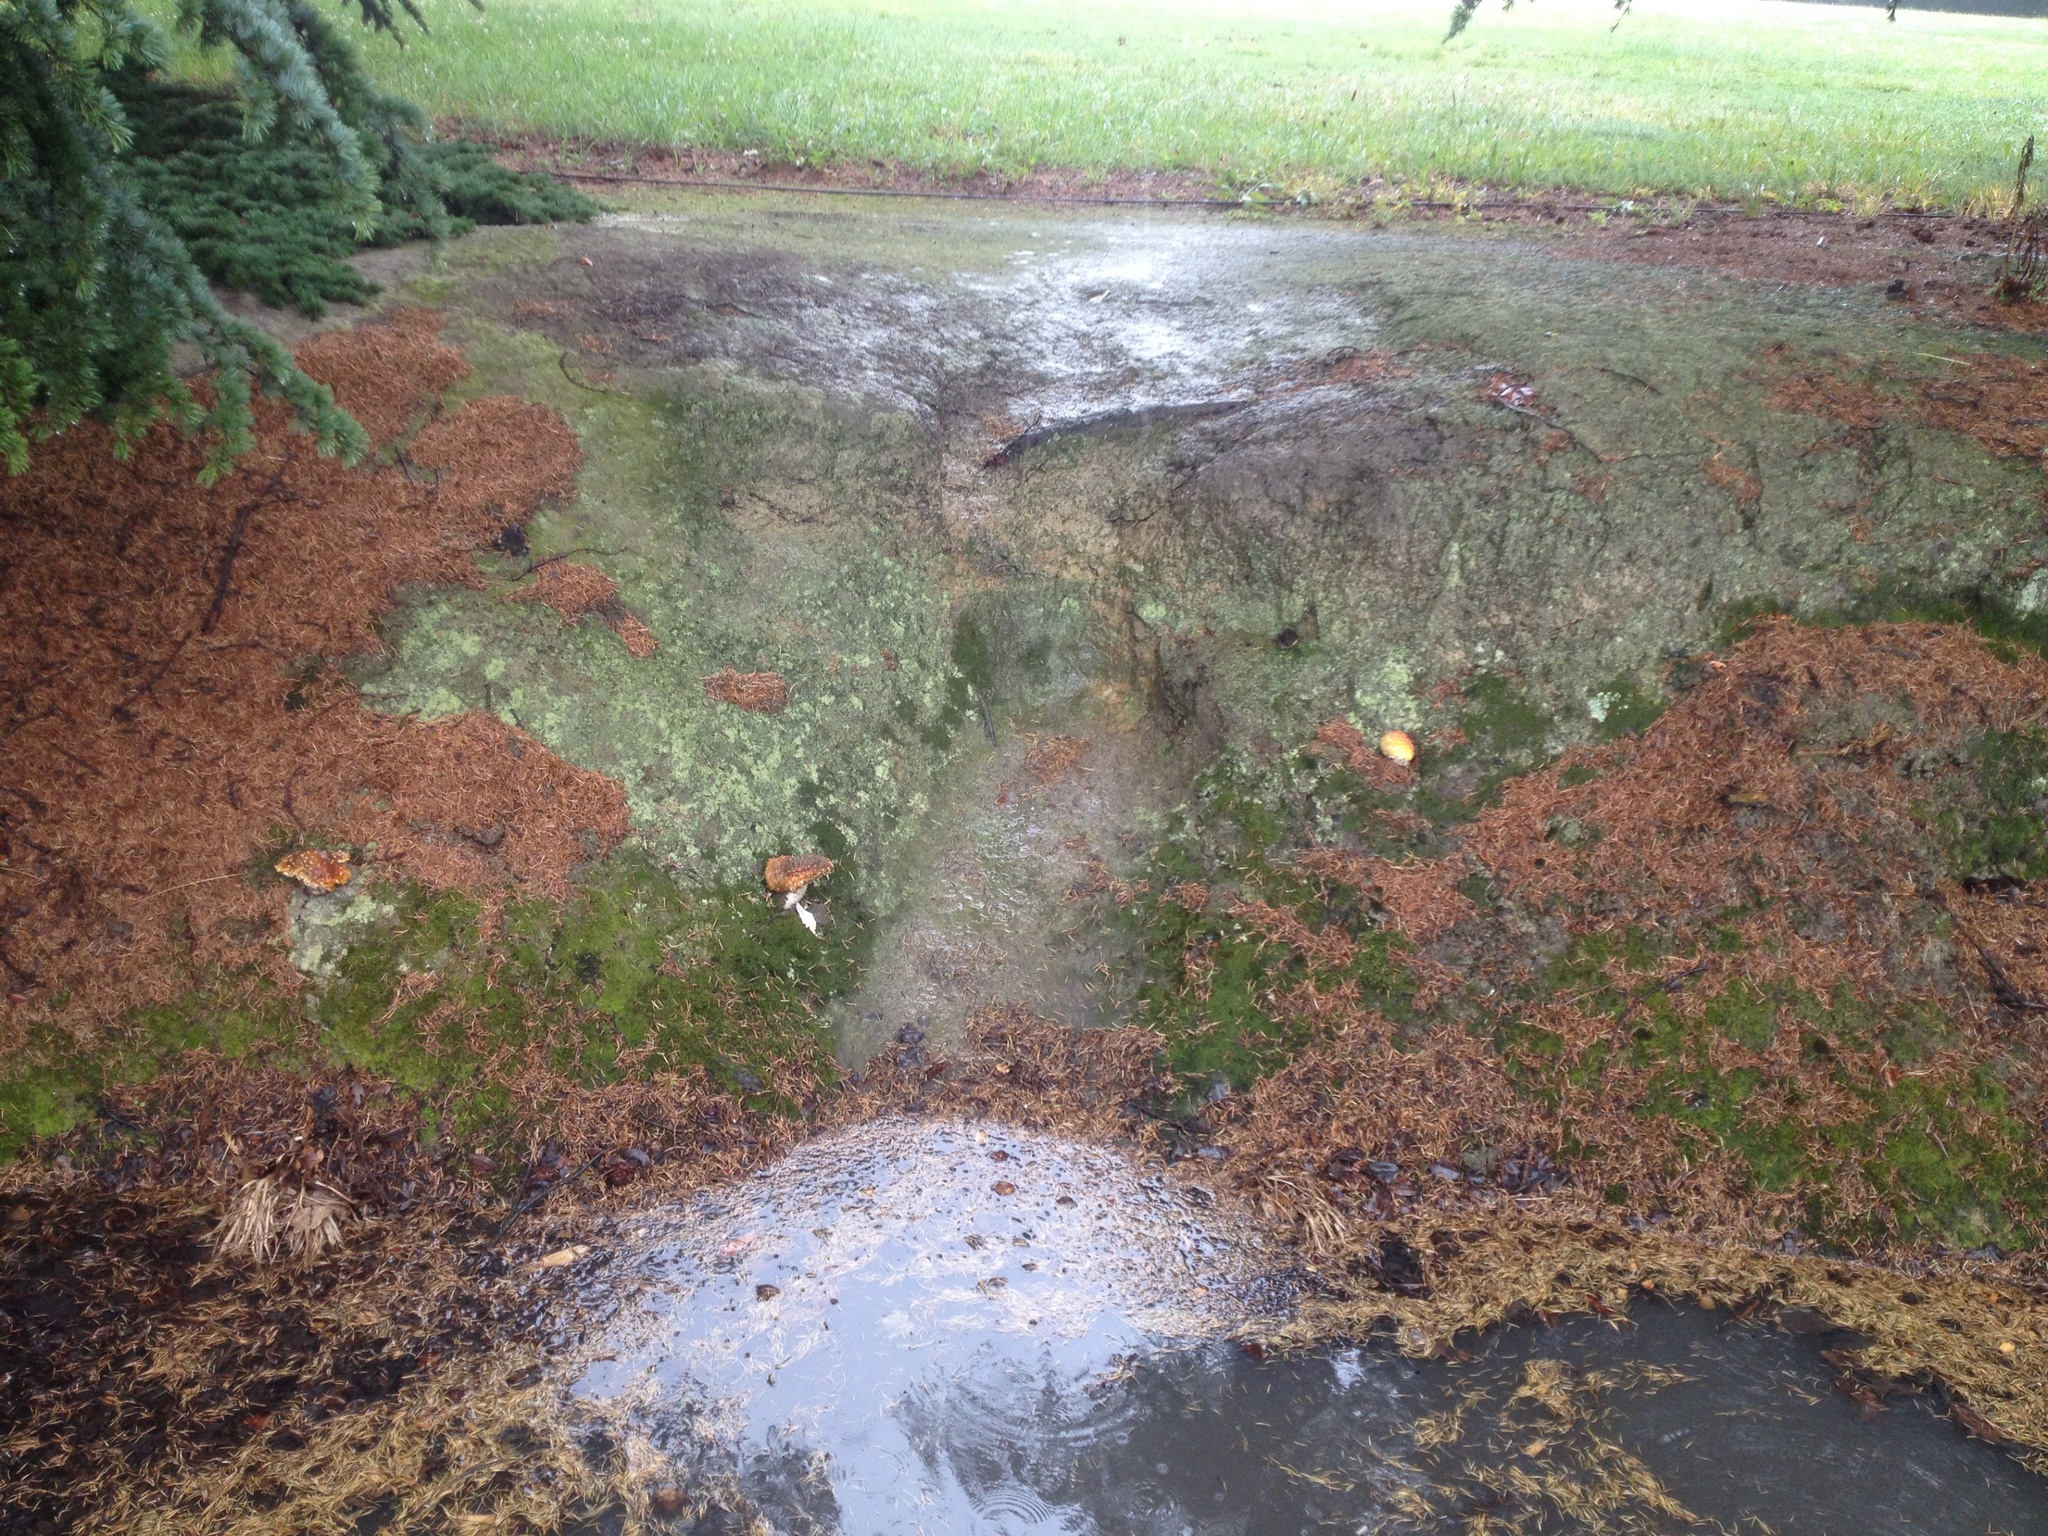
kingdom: Fungi
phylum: Basidiomycota
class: Agaricomycetes
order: Agaricales
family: Amanitaceae
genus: Amanita
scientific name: Amanita muscaria
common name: Fly agaric
